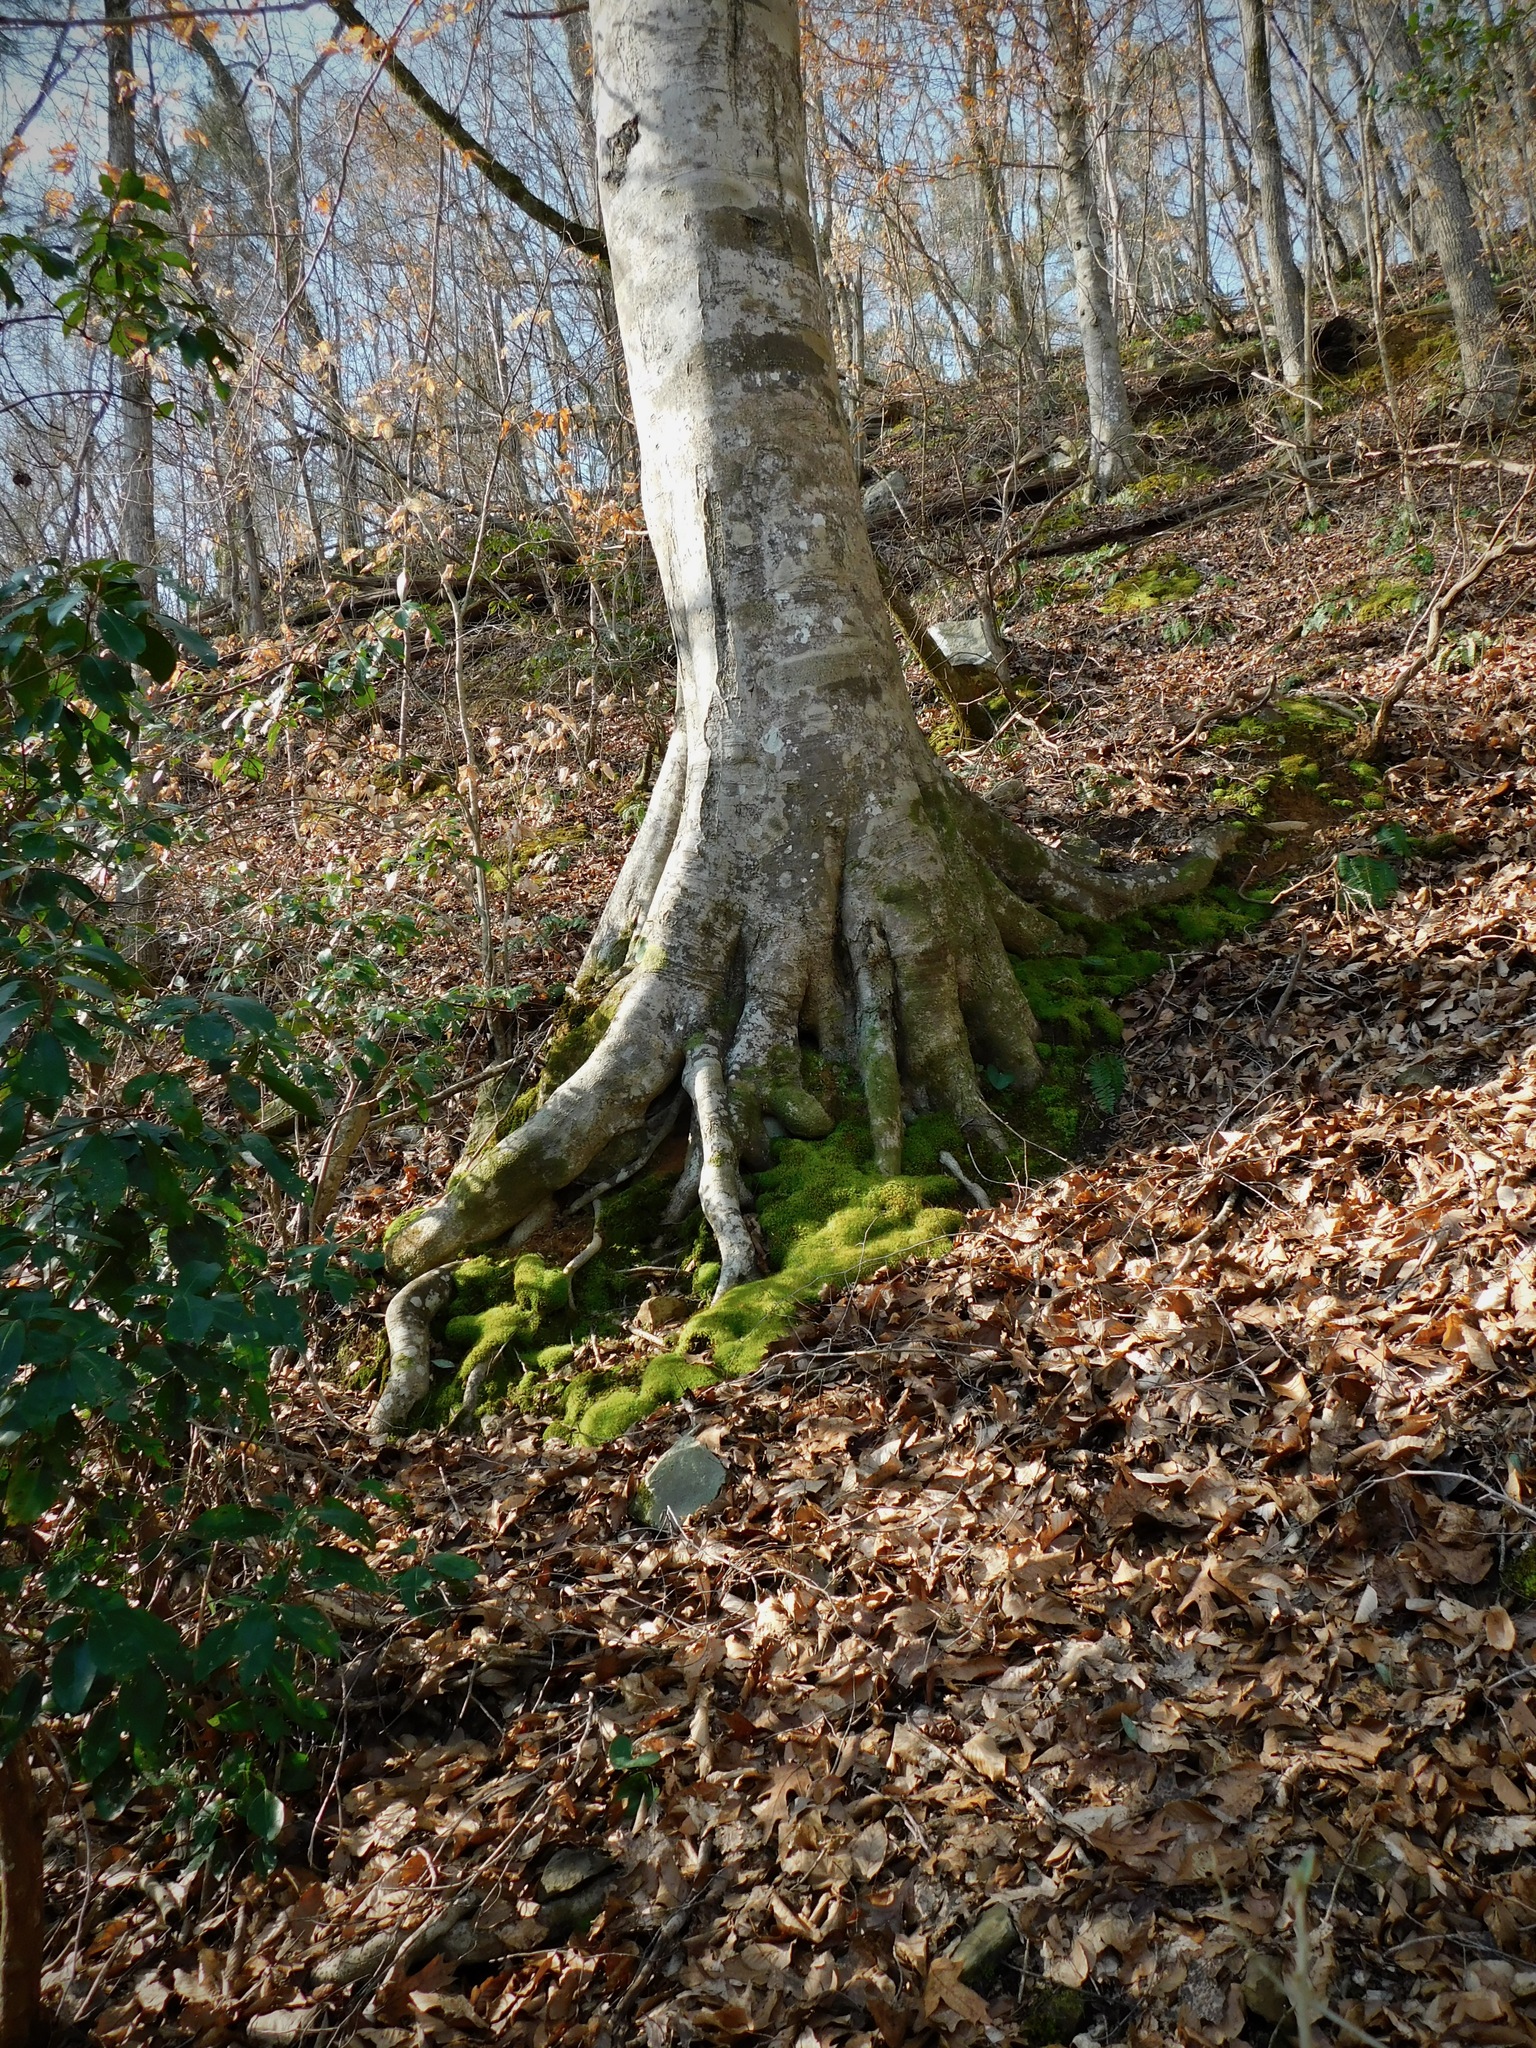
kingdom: Plantae
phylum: Tracheophyta
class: Magnoliopsida
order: Fagales
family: Fagaceae
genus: Fagus
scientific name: Fagus grandifolia
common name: American beech
